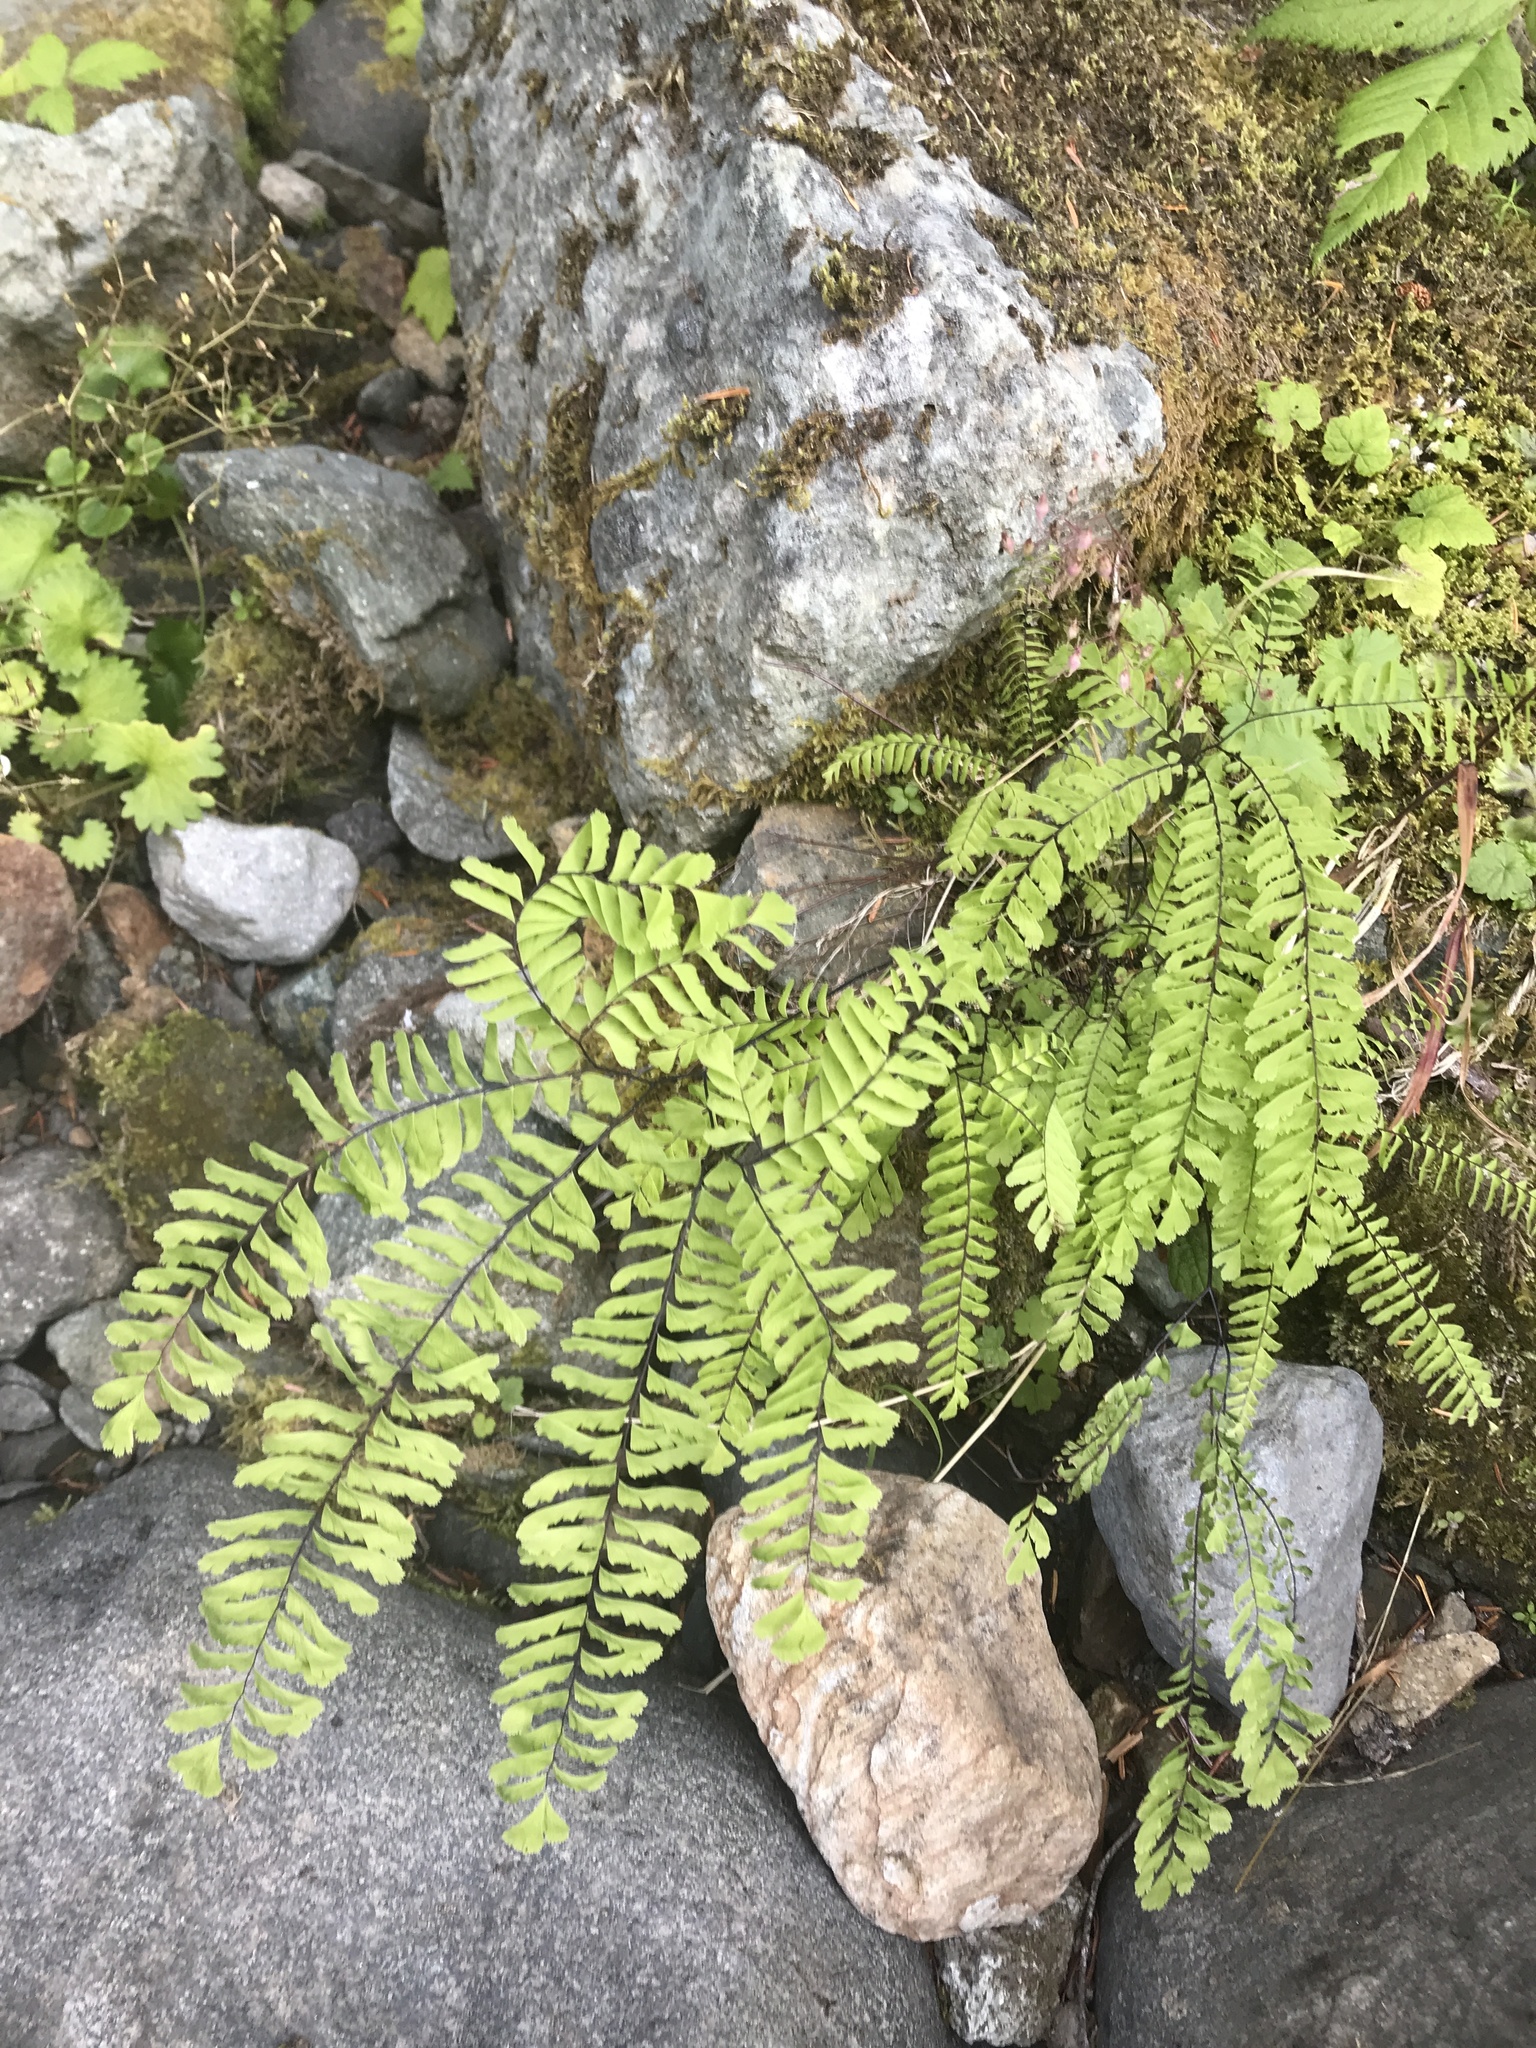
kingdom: Plantae
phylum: Tracheophyta
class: Polypodiopsida
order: Polypodiales
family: Pteridaceae
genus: Adiantum
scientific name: Adiantum aleuticum
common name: Aleutian maidenhair fern
